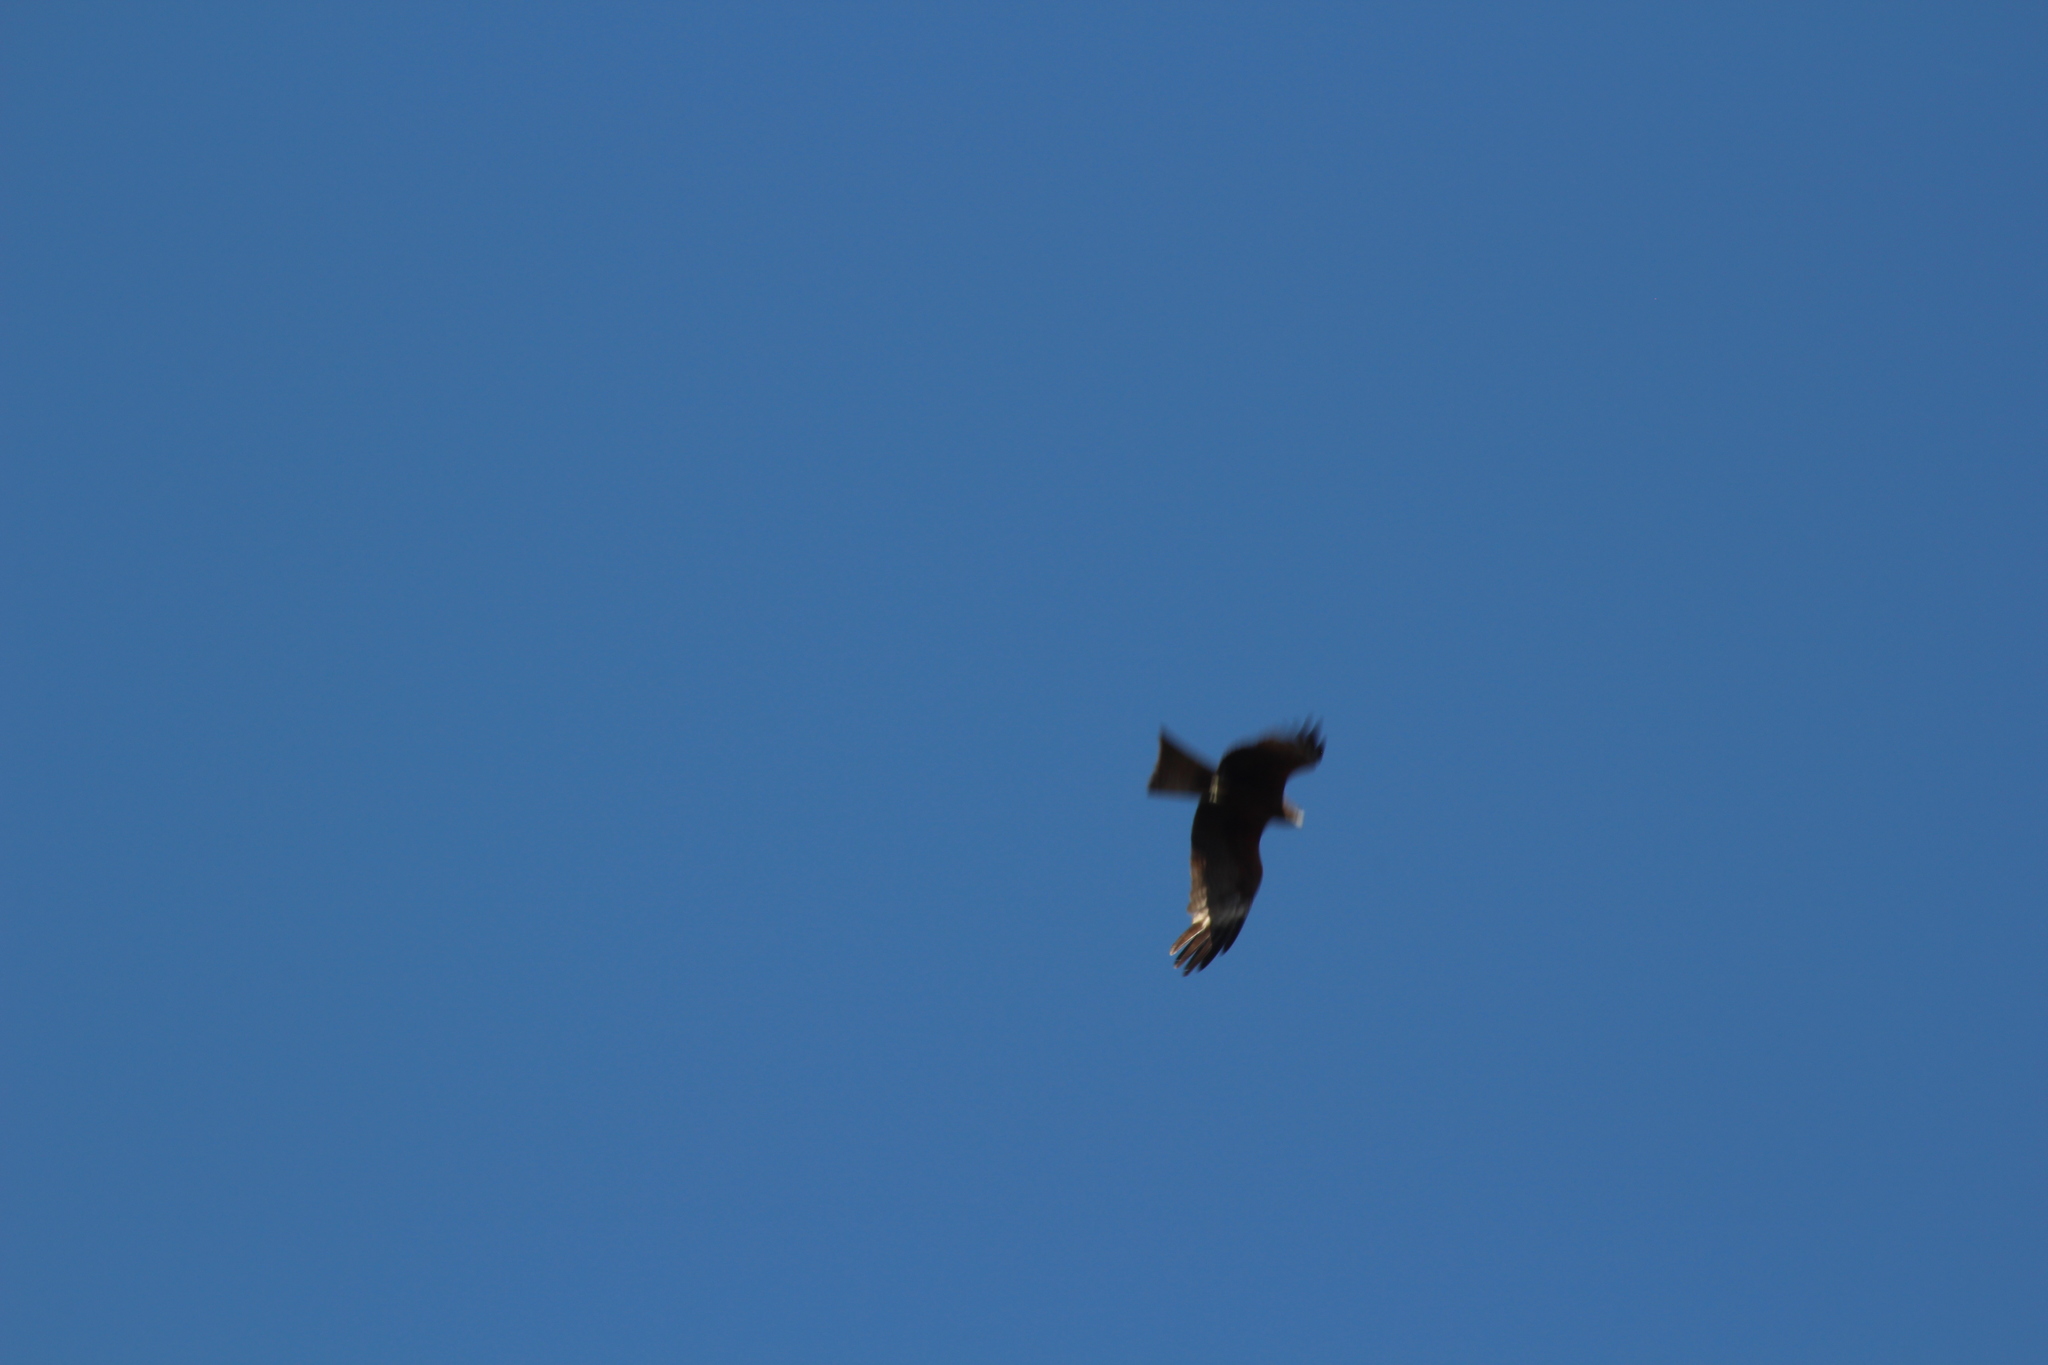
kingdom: Animalia
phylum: Chordata
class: Aves
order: Accipitriformes
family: Accipitridae
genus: Milvus
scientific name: Milvus migrans
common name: Black kite
